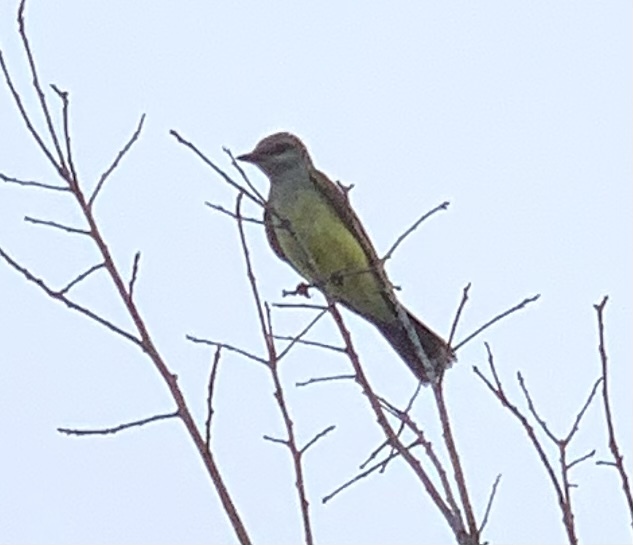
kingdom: Animalia
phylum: Chordata
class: Aves
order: Passeriformes
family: Tyrannidae
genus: Tyrannus
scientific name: Tyrannus verticalis
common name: Western kingbird
